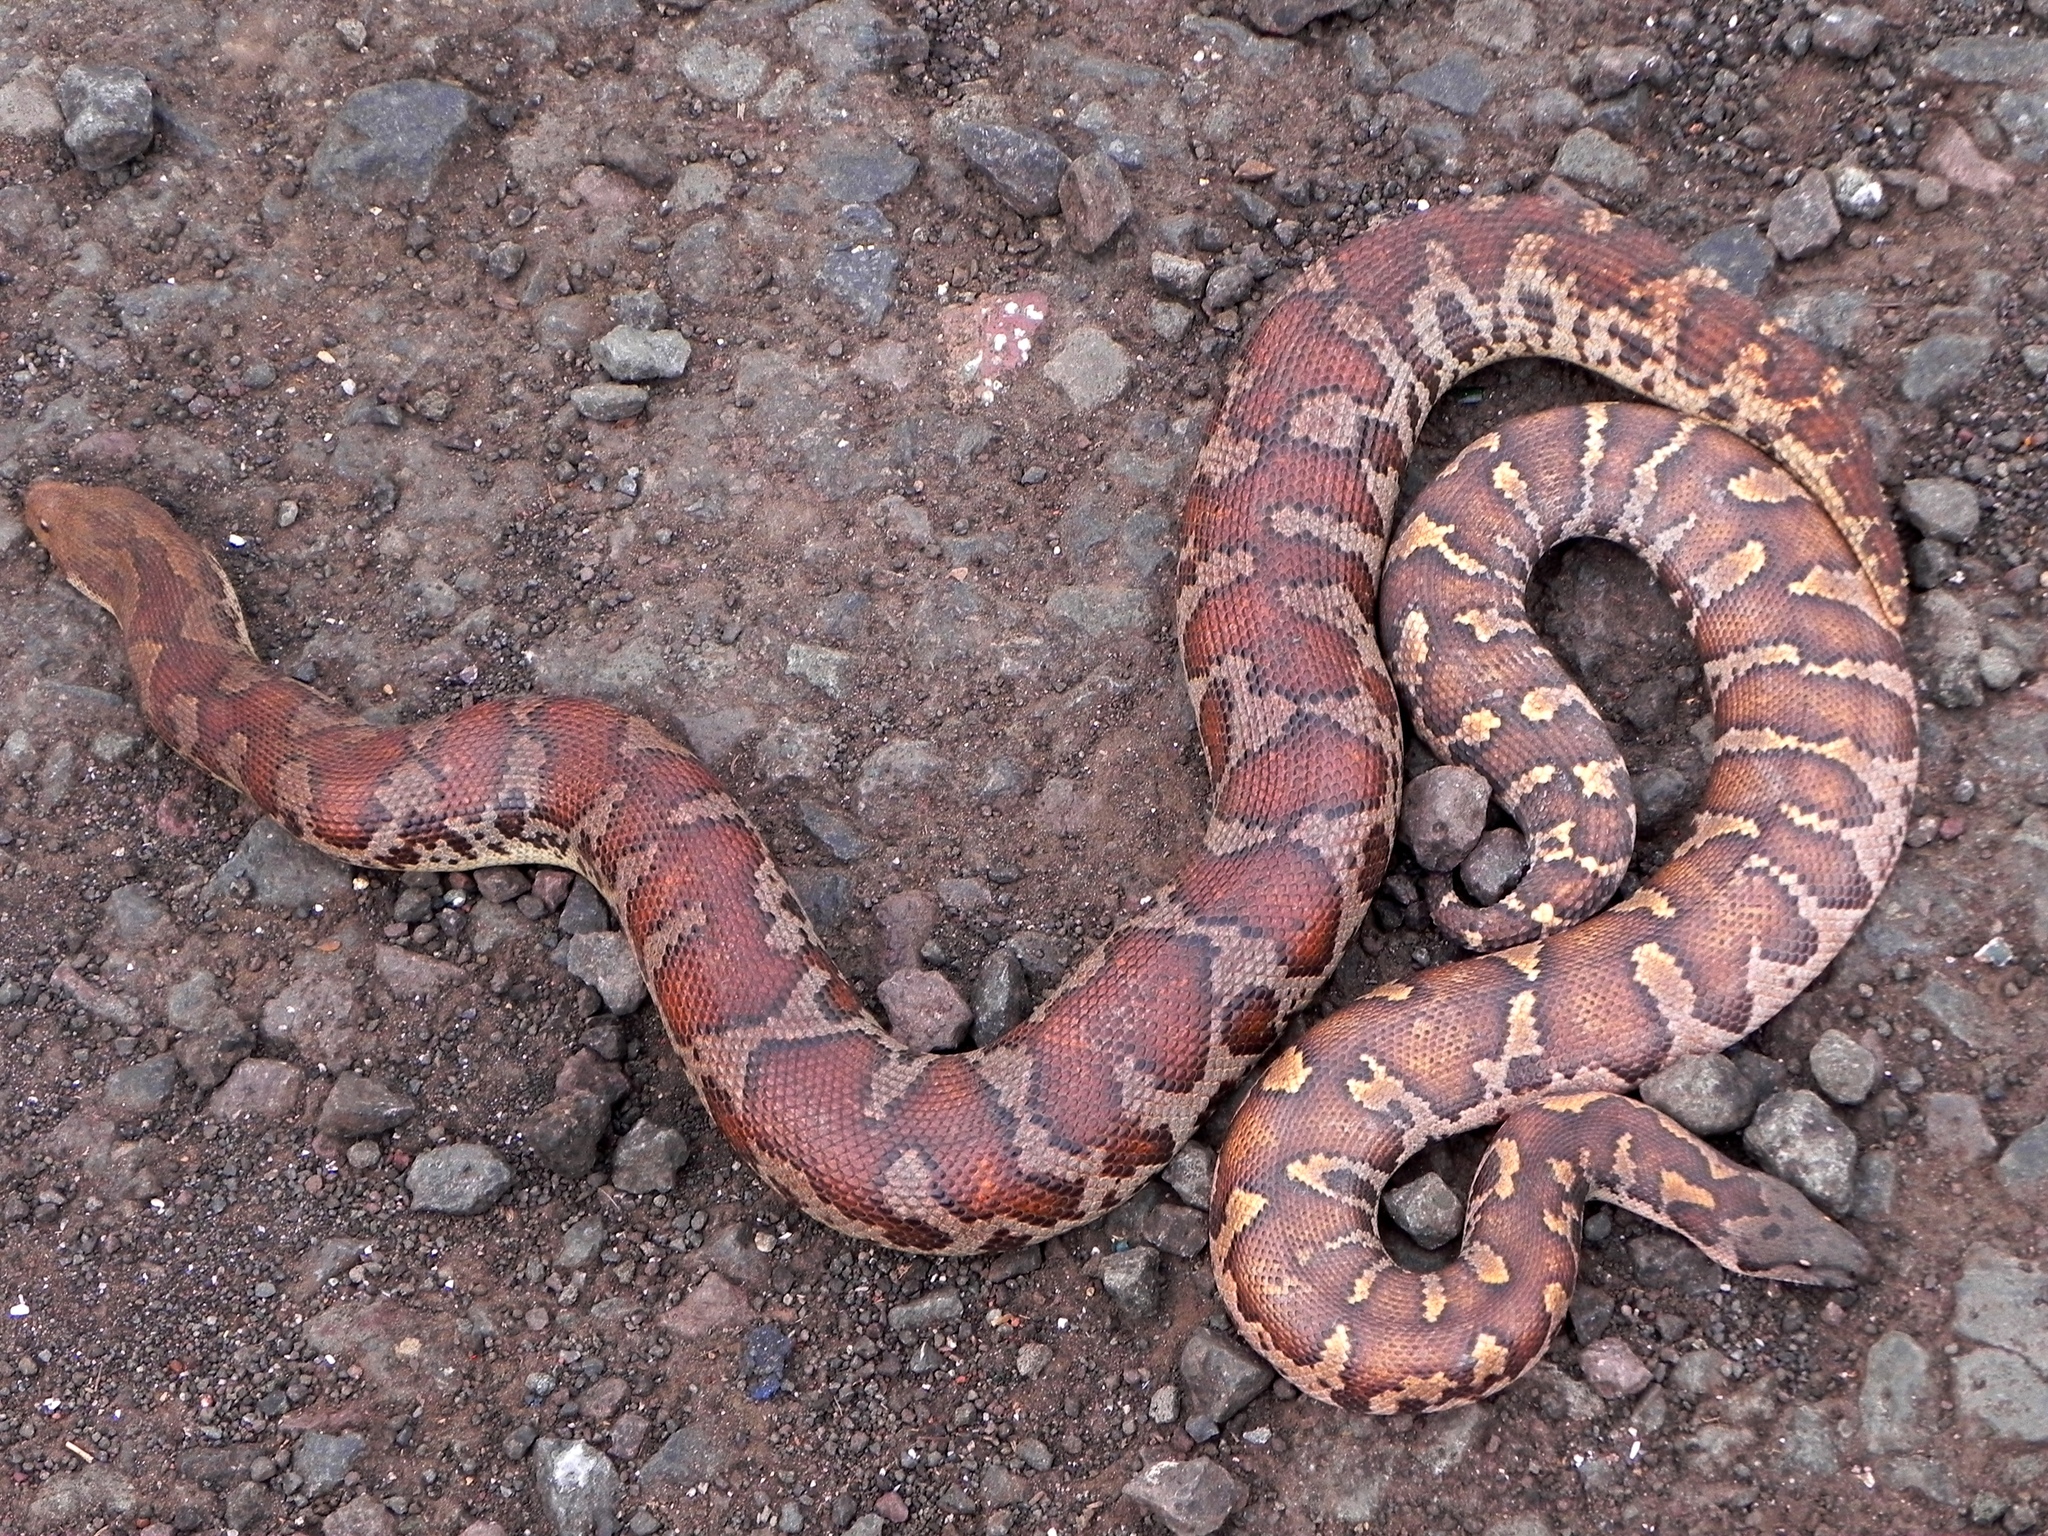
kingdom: Animalia
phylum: Chordata
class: Squamata
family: Boidae
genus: Eryx
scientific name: Eryx conicus
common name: Rough-tailed sand boa
